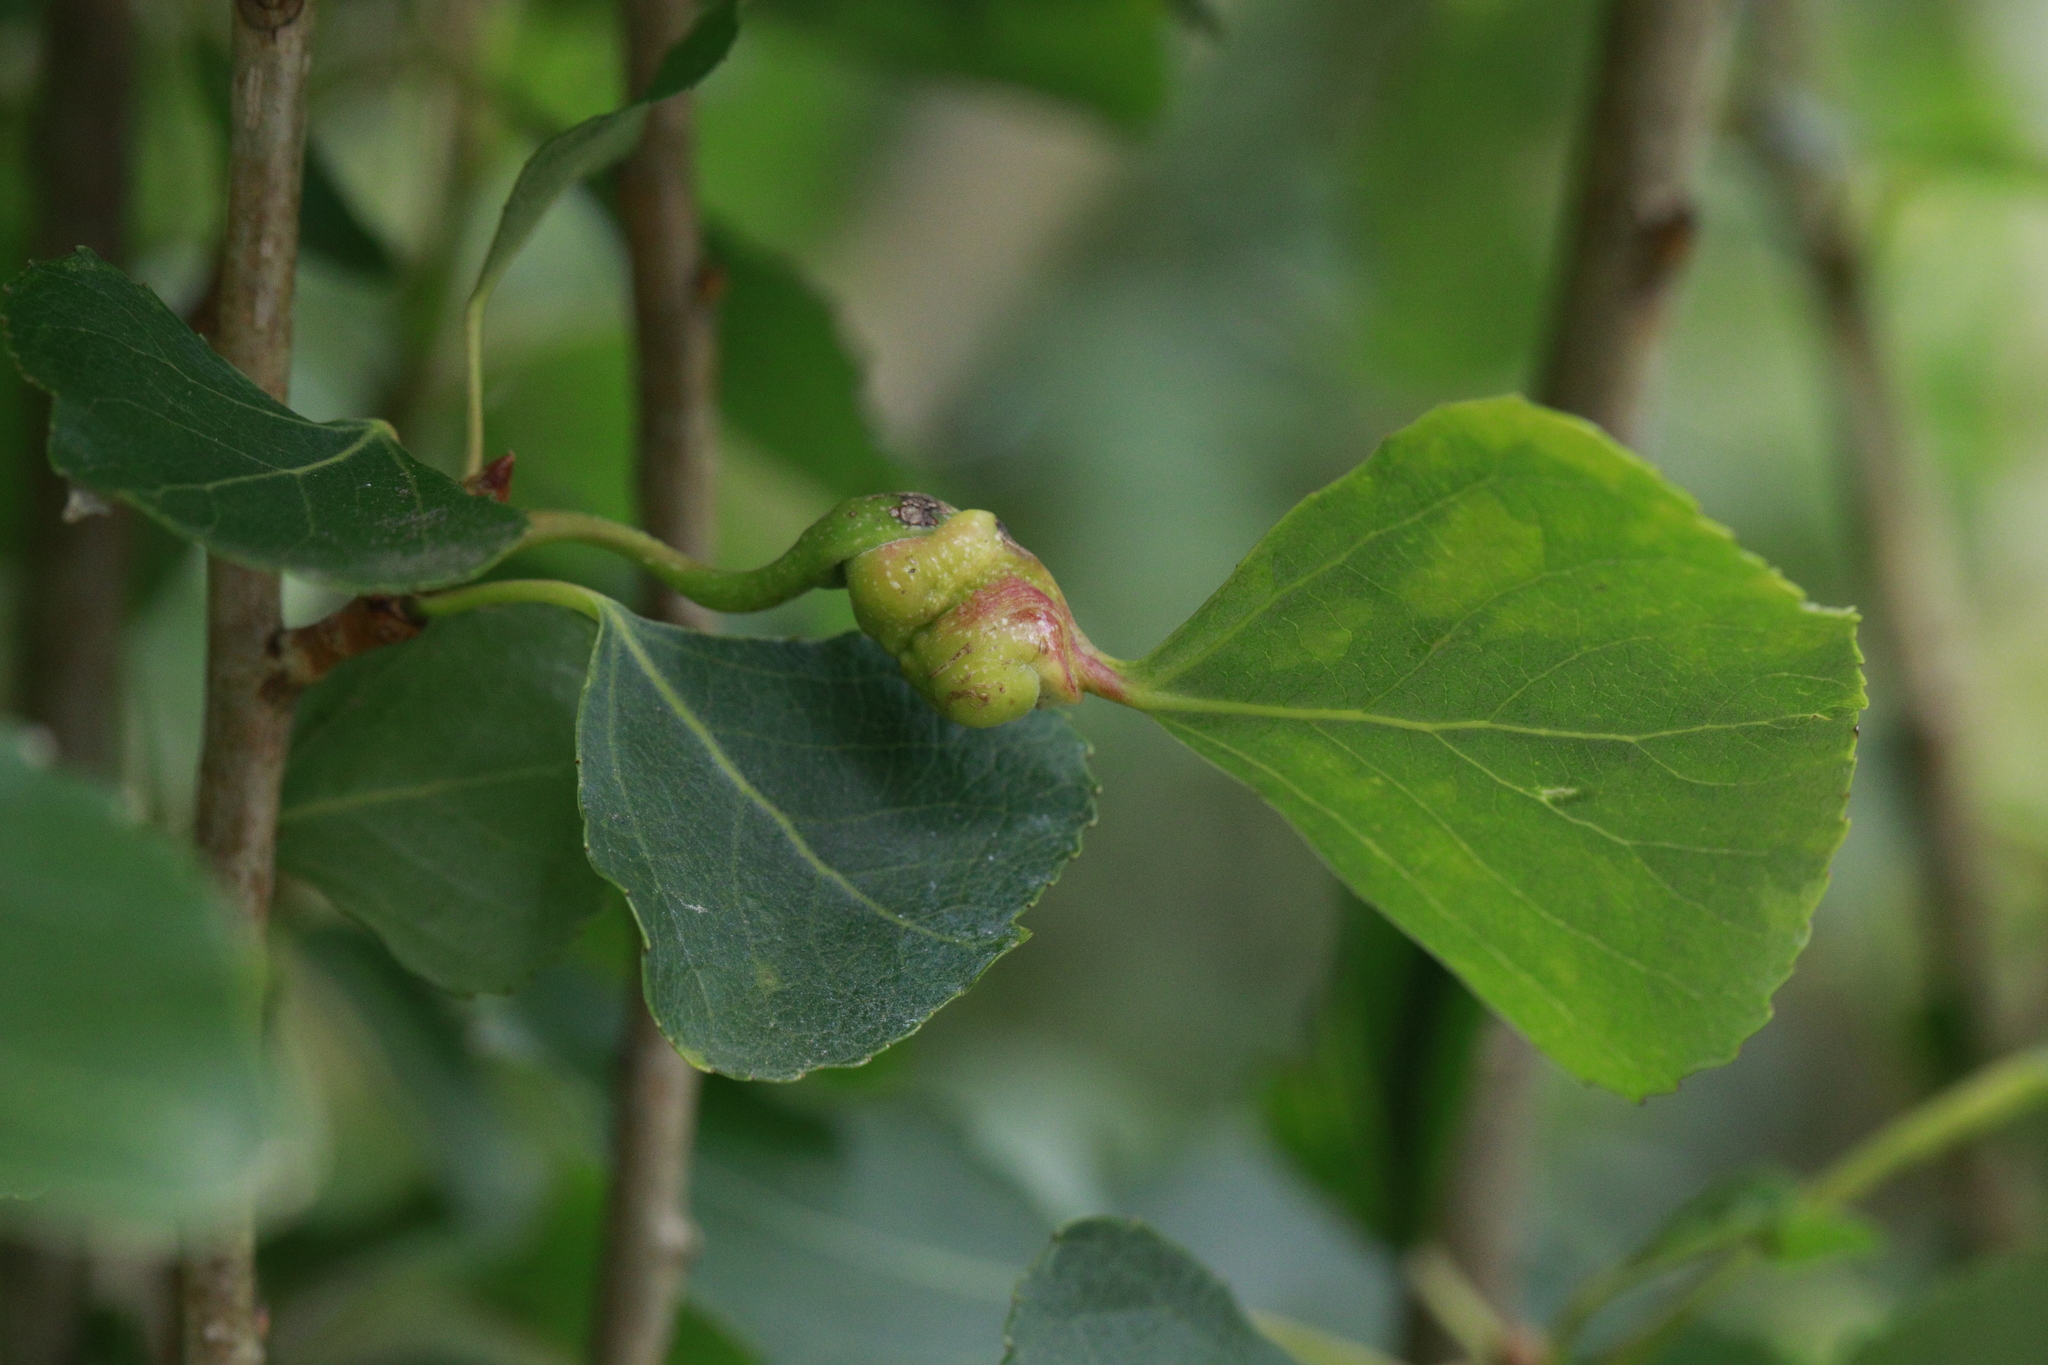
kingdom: Animalia
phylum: Arthropoda
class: Insecta
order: Hemiptera
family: Aphididae
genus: Pemphigus
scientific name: Pemphigus spyrothecae
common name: Aphid
